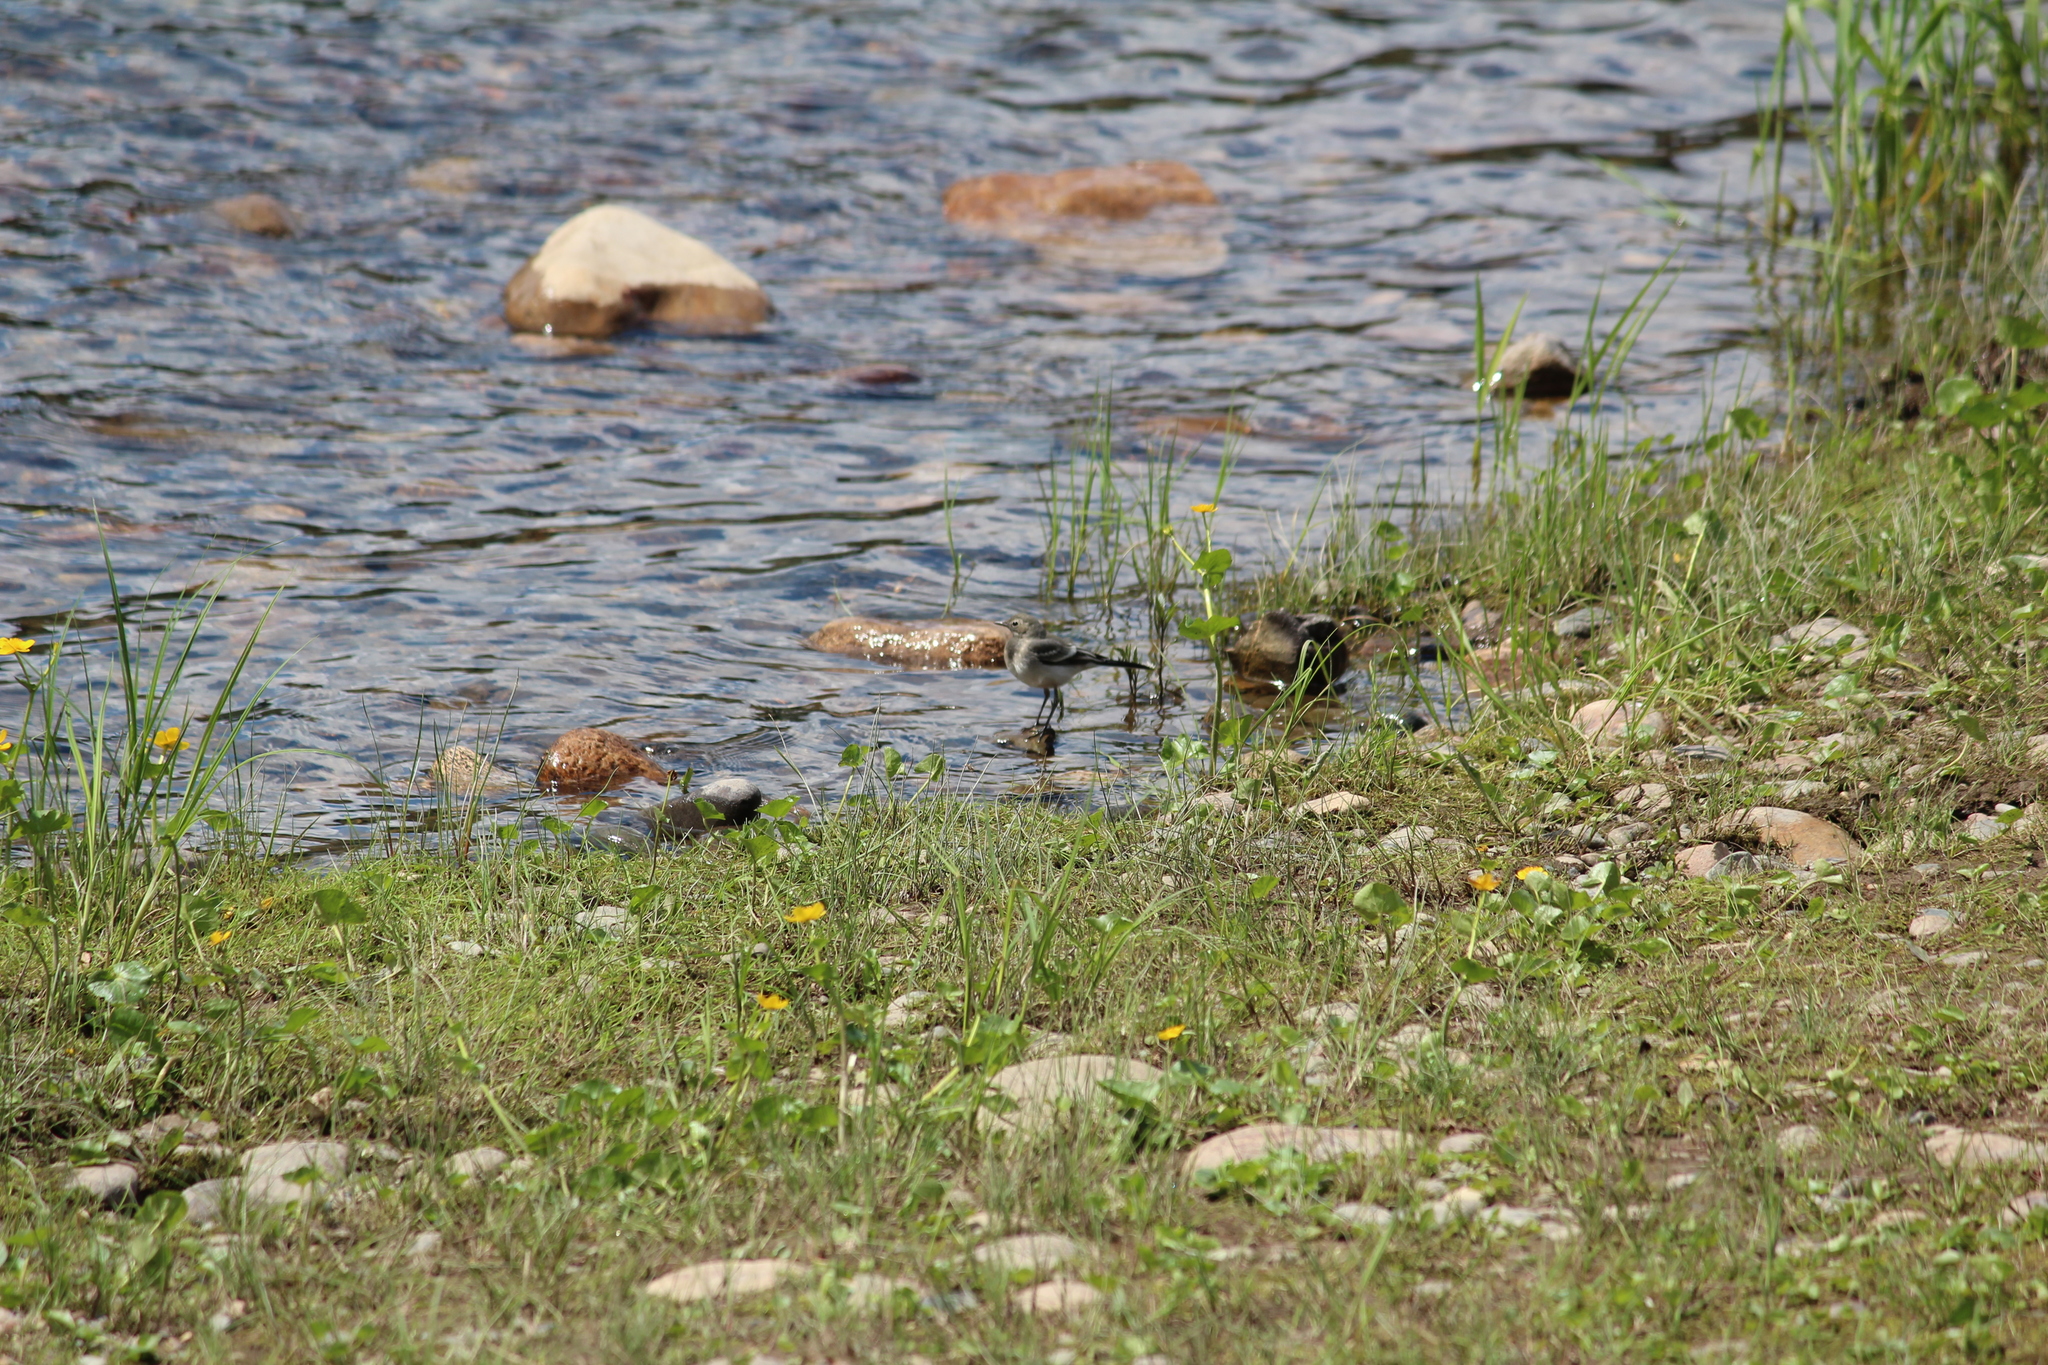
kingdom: Animalia
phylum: Chordata
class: Aves
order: Passeriformes
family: Motacillidae
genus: Motacilla
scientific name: Motacilla alba
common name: White wagtail
